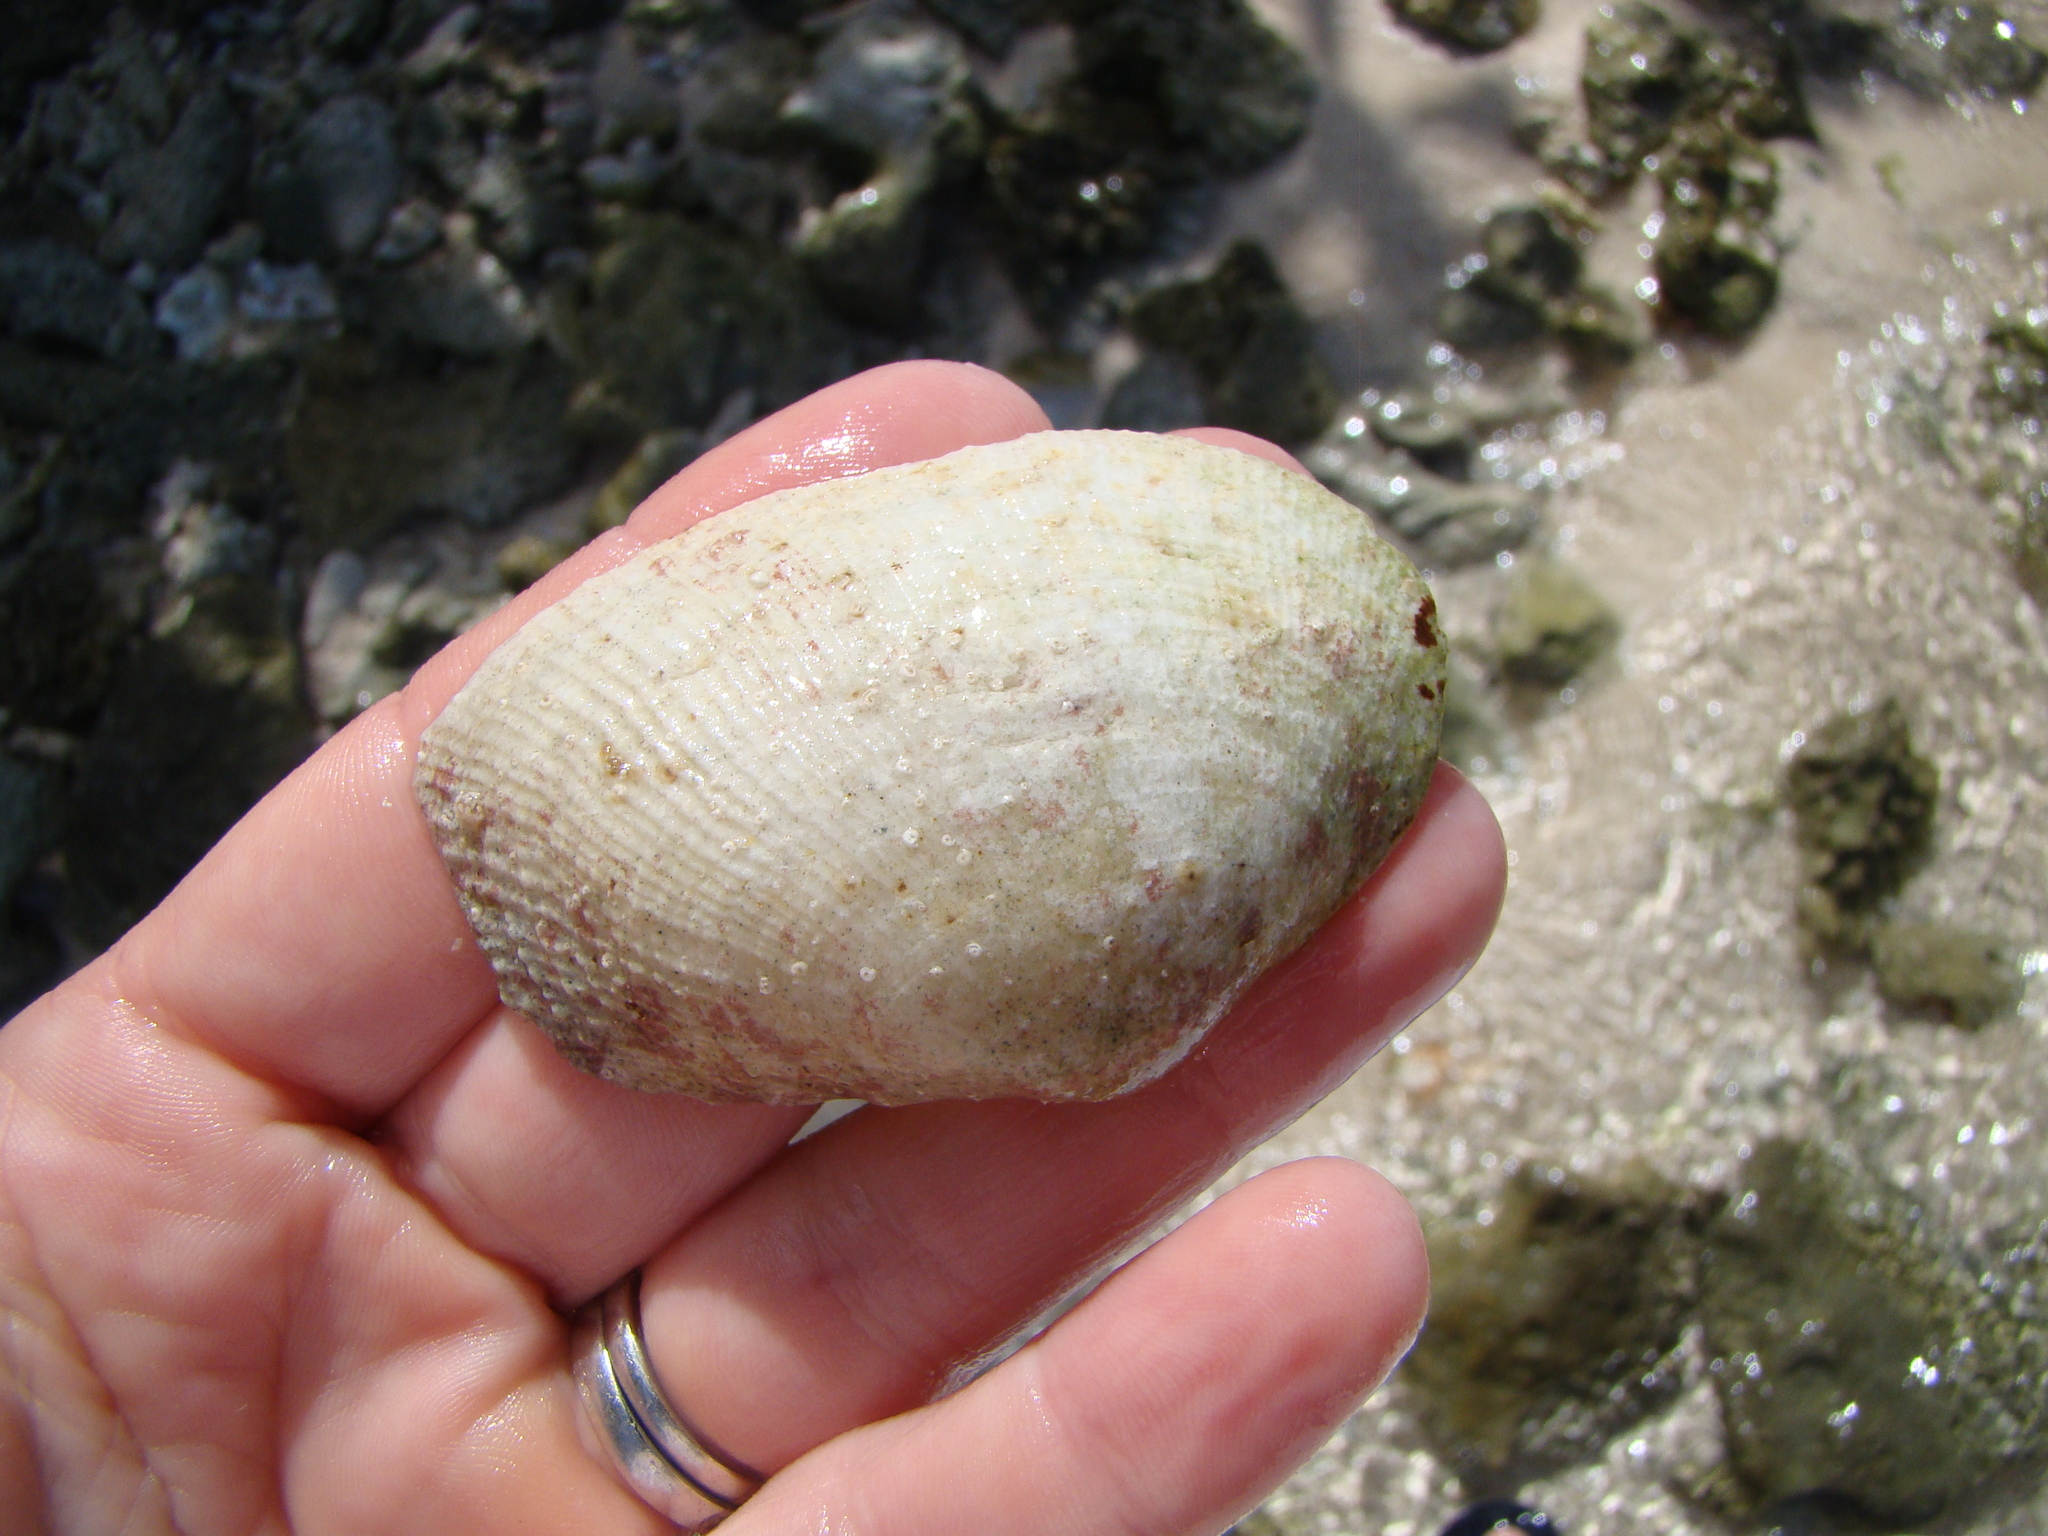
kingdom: Animalia
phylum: Mollusca
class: Bivalvia
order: Cardiida
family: Psammobiidae
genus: Asaphis
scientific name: Asaphis violascens
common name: Pacific asaphis
